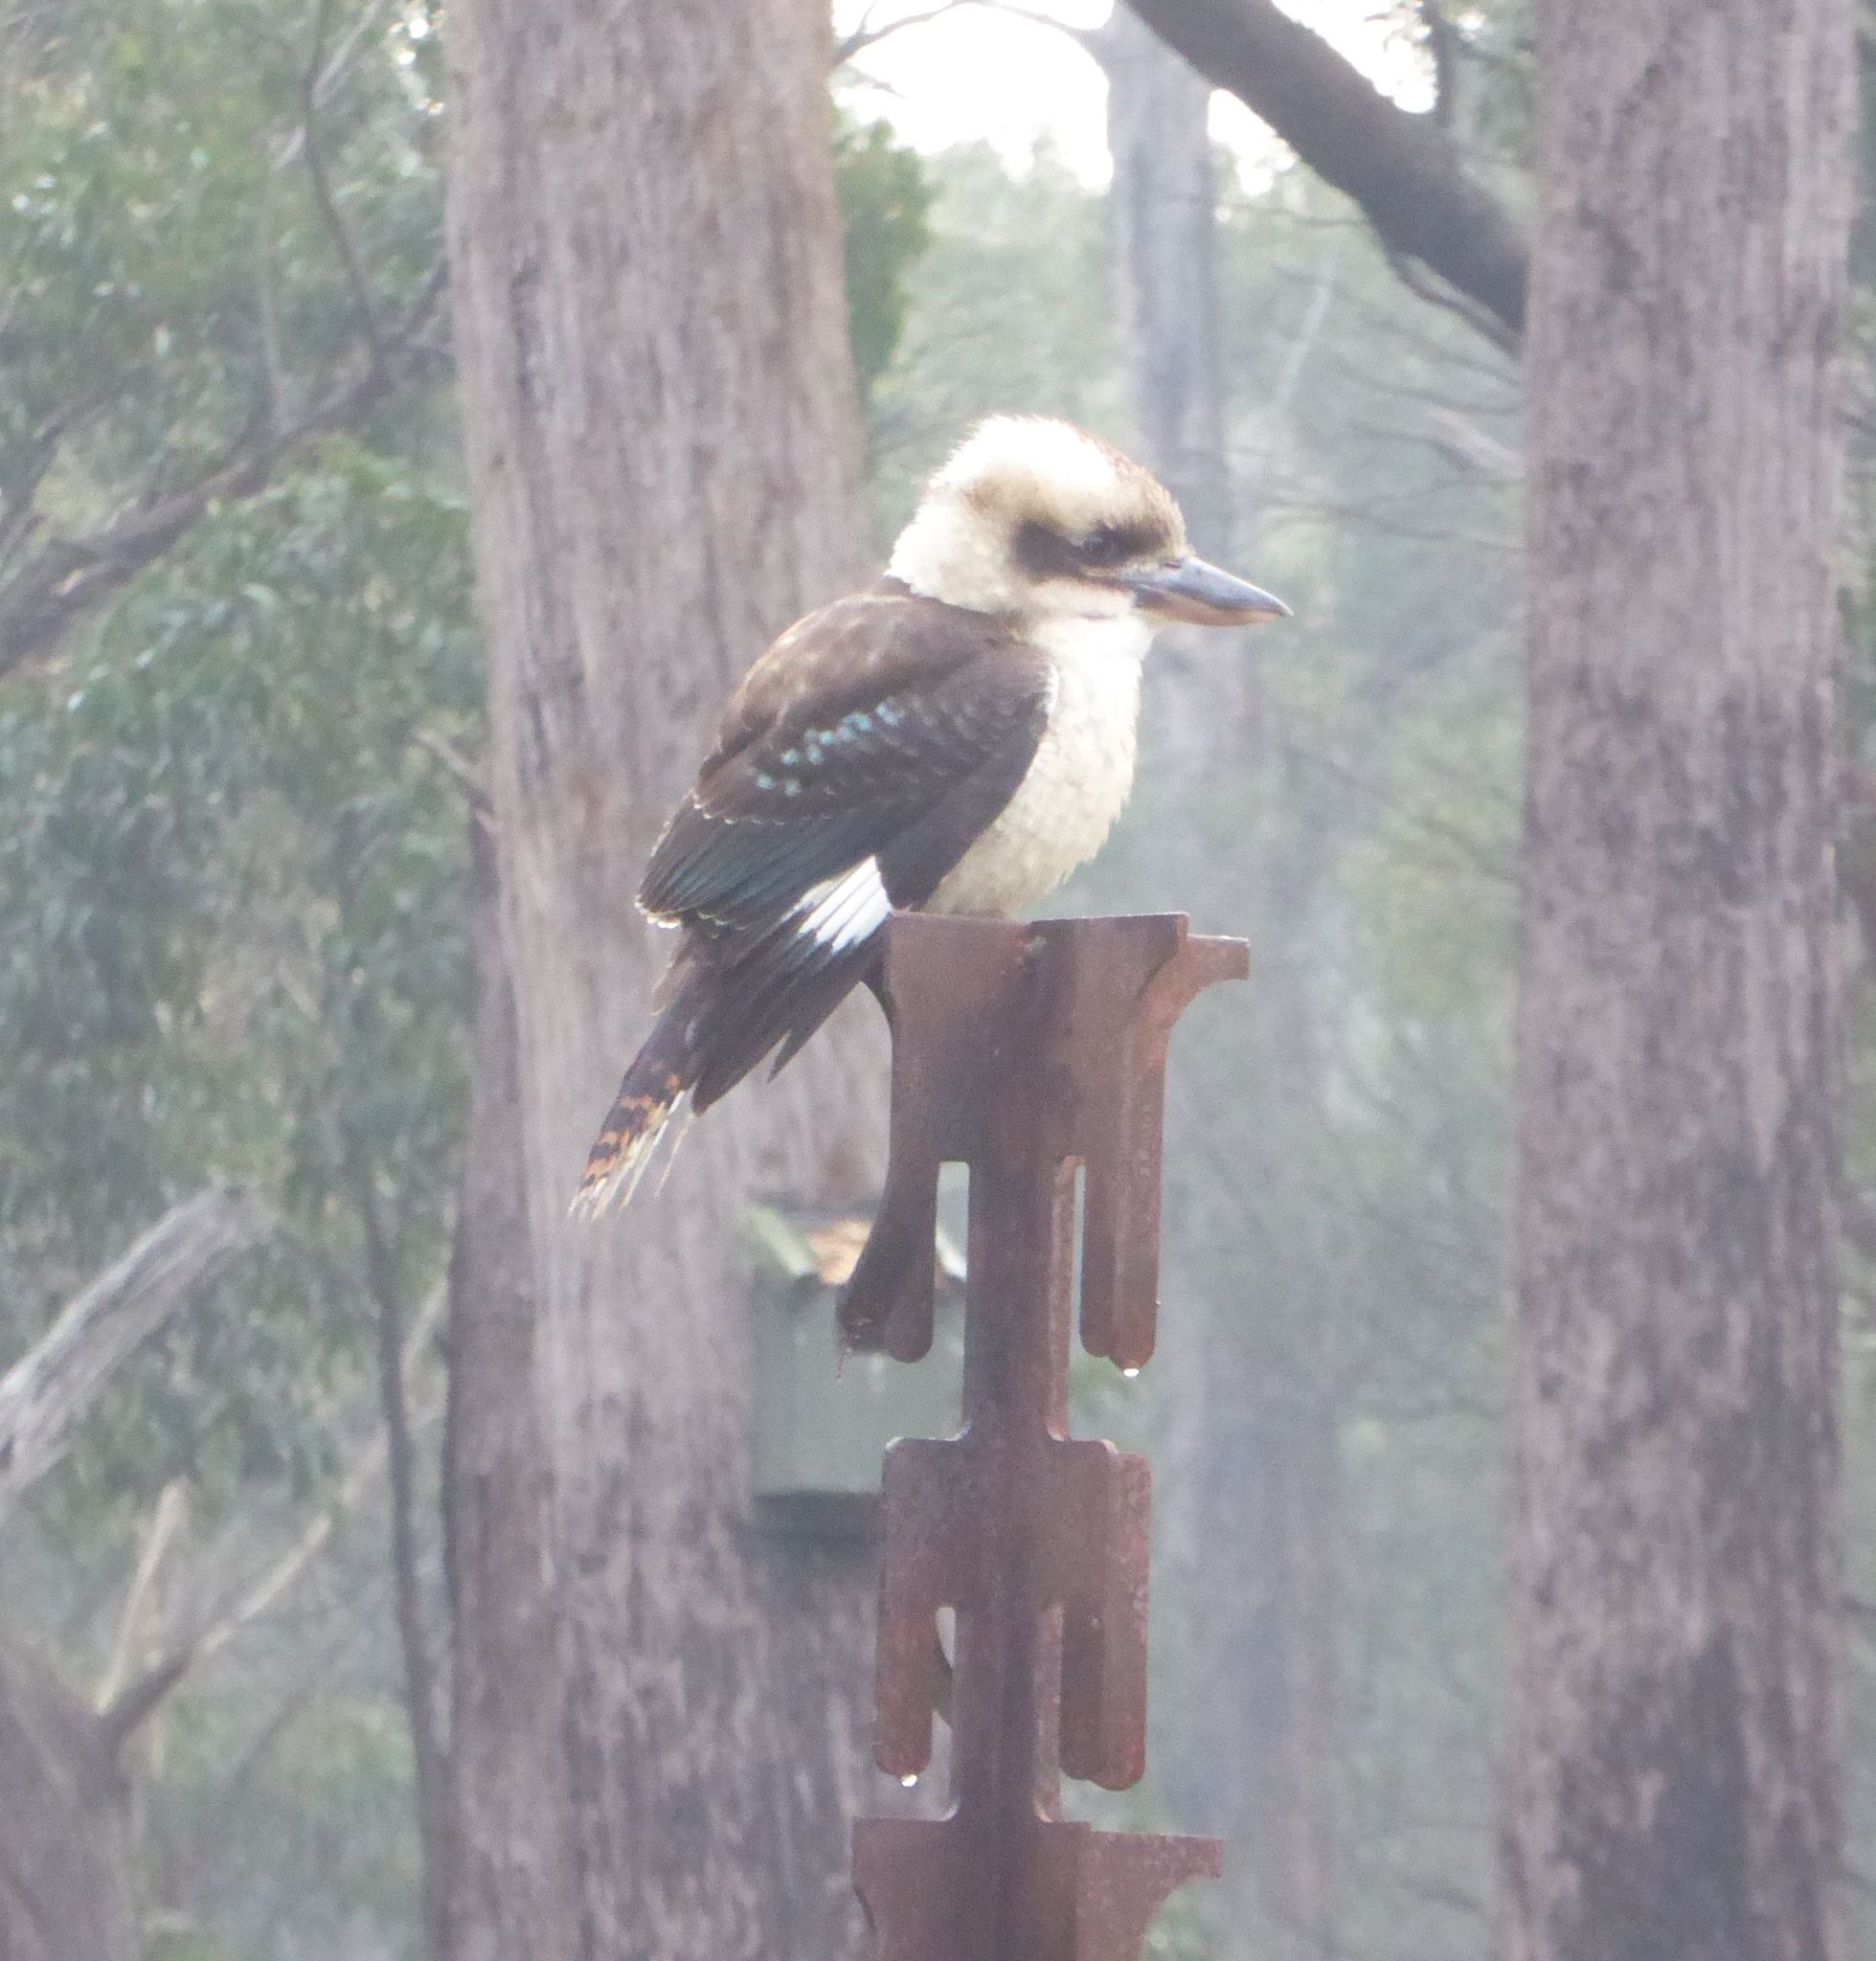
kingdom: Animalia
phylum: Chordata
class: Aves
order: Coraciiformes
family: Alcedinidae
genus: Dacelo
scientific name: Dacelo novaeguineae
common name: Laughing kookaburra
